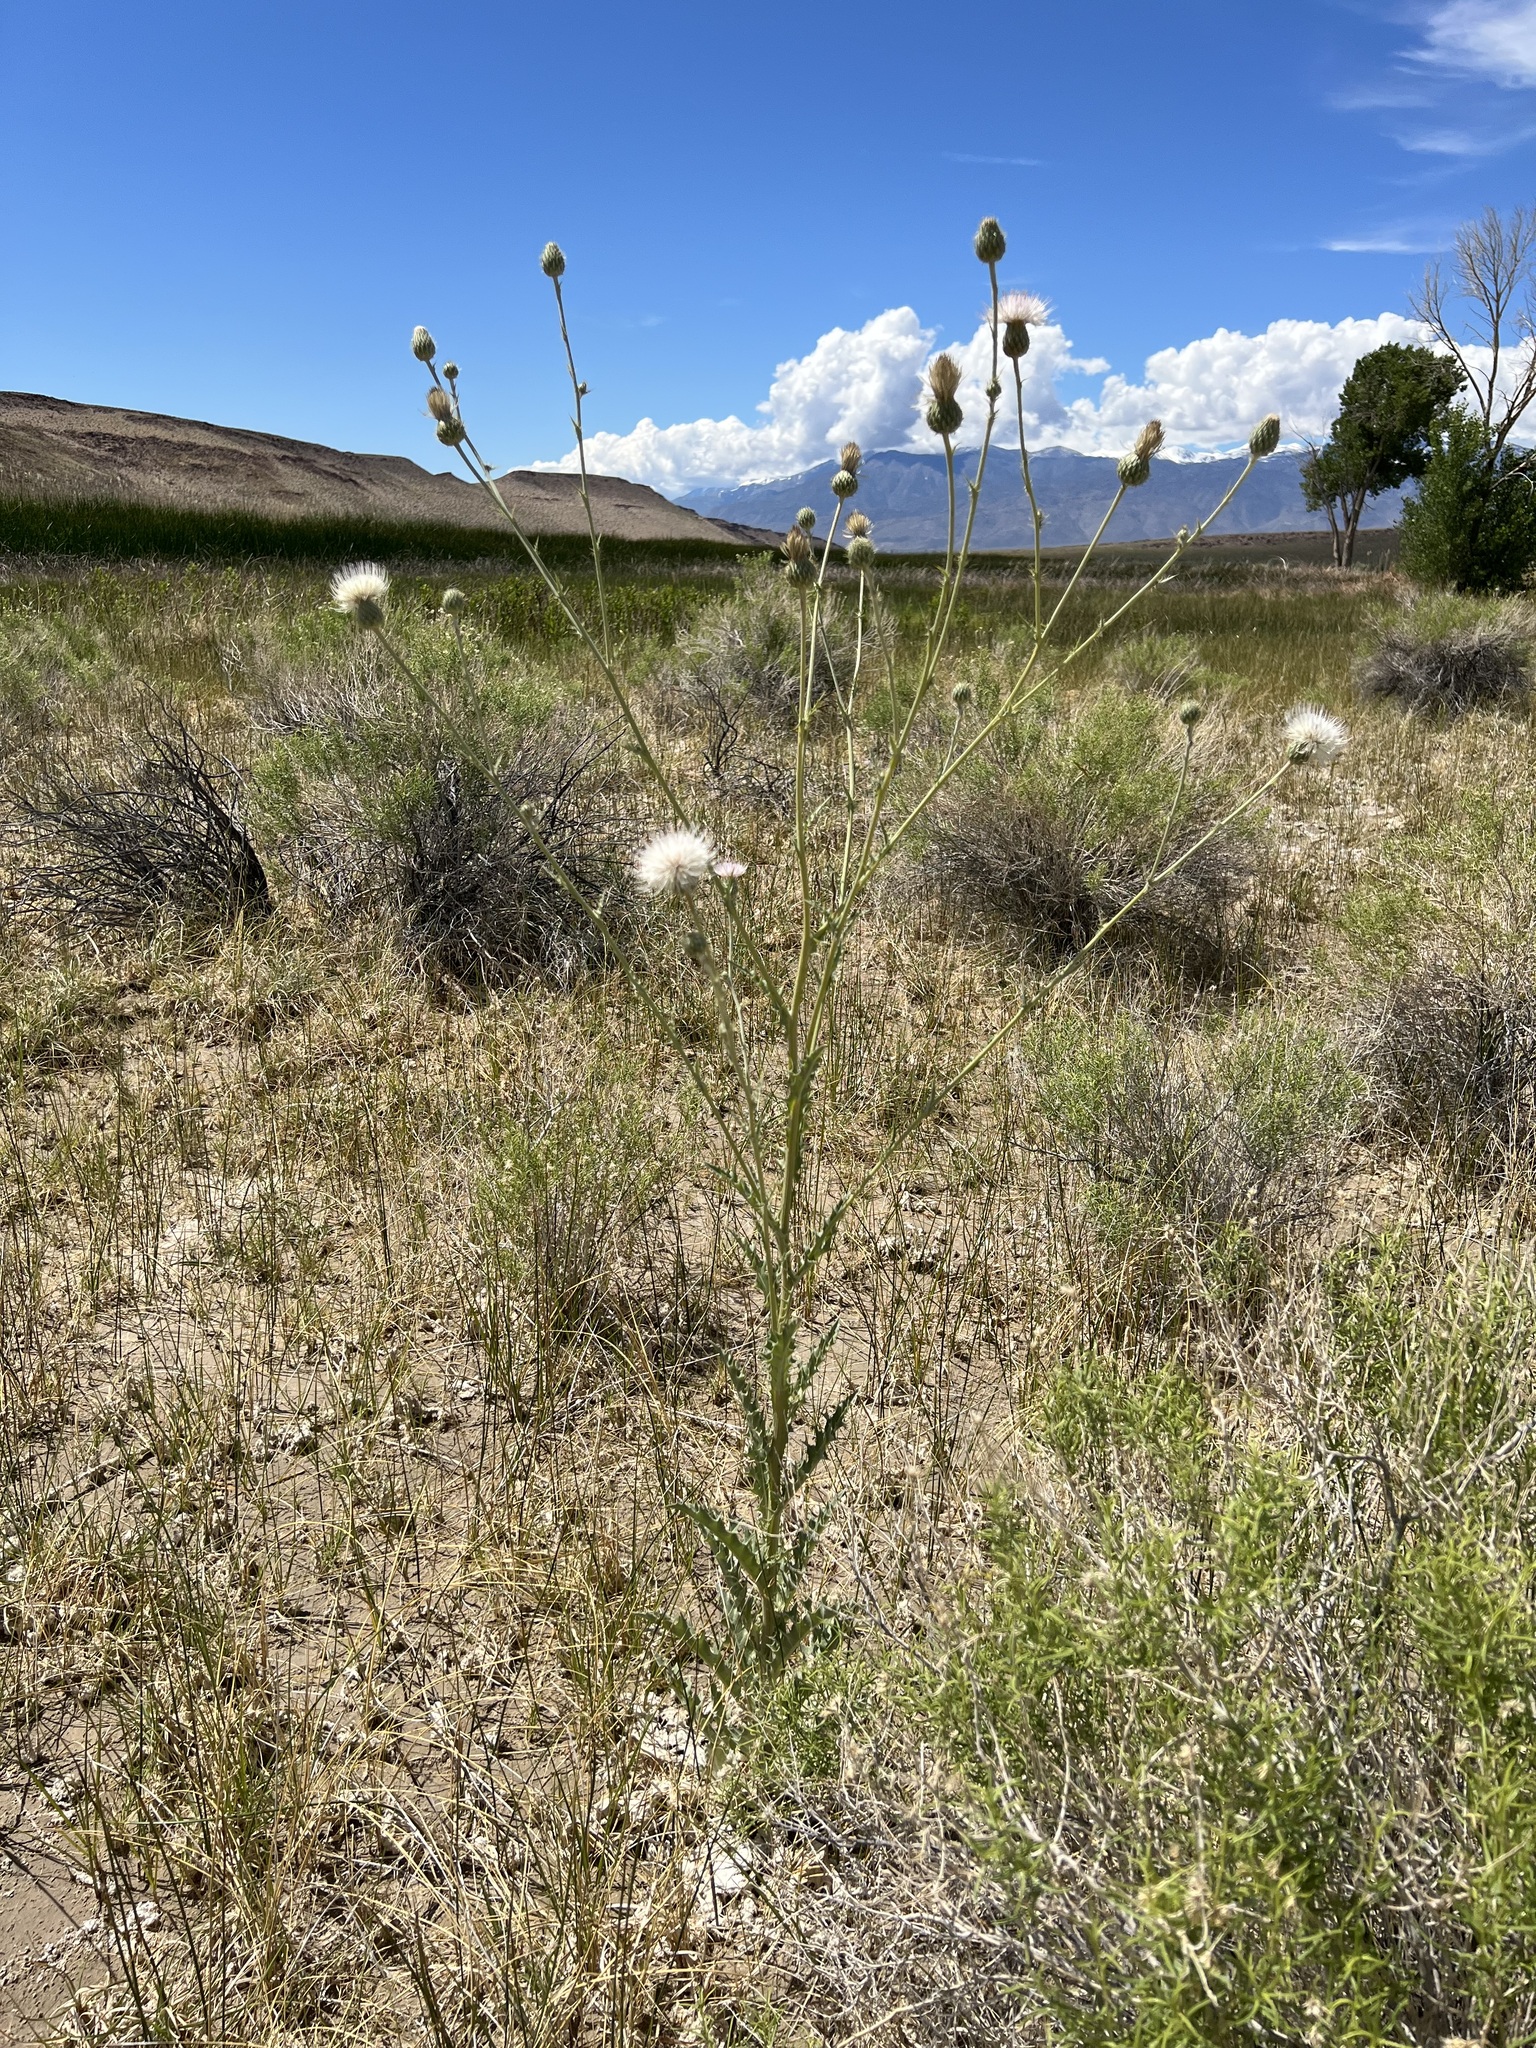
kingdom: Plantae
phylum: Tracheophyta
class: Magnoliopsida
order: Asterales
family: Asteraceae
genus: Cirsium
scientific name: Cirsium mohavense
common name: Mojave thistle
